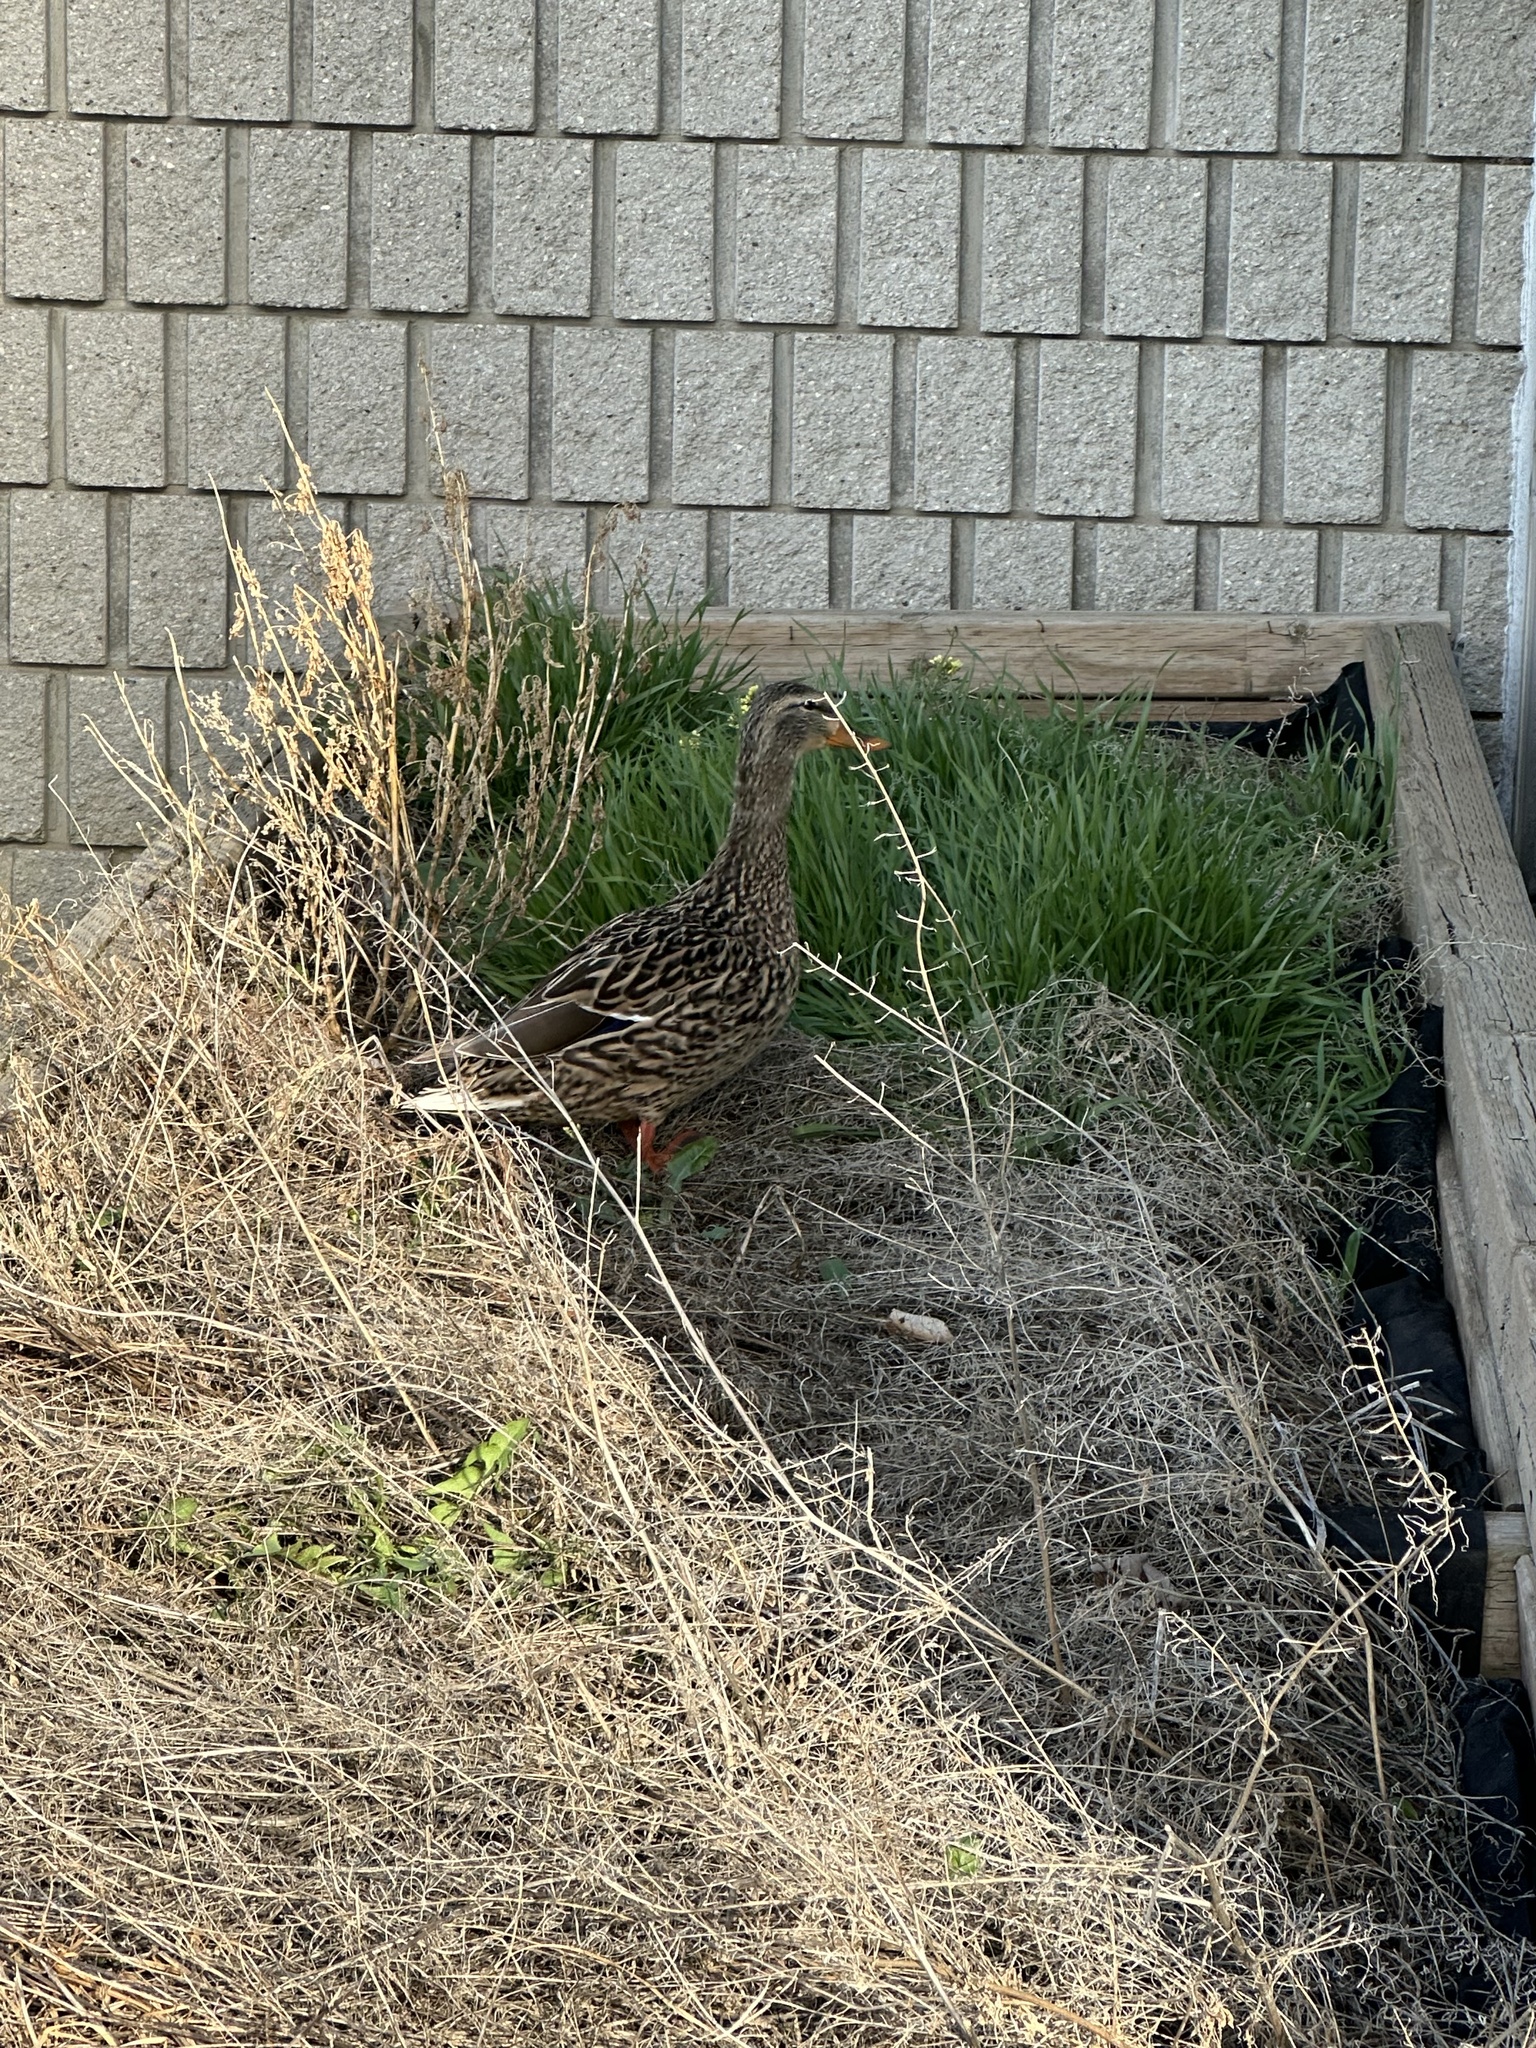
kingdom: Animalia
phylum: Chordata
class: Aves
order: Anseriformes
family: Anatidae
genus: Anas
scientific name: Anas platyrhynchos
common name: Mallard
